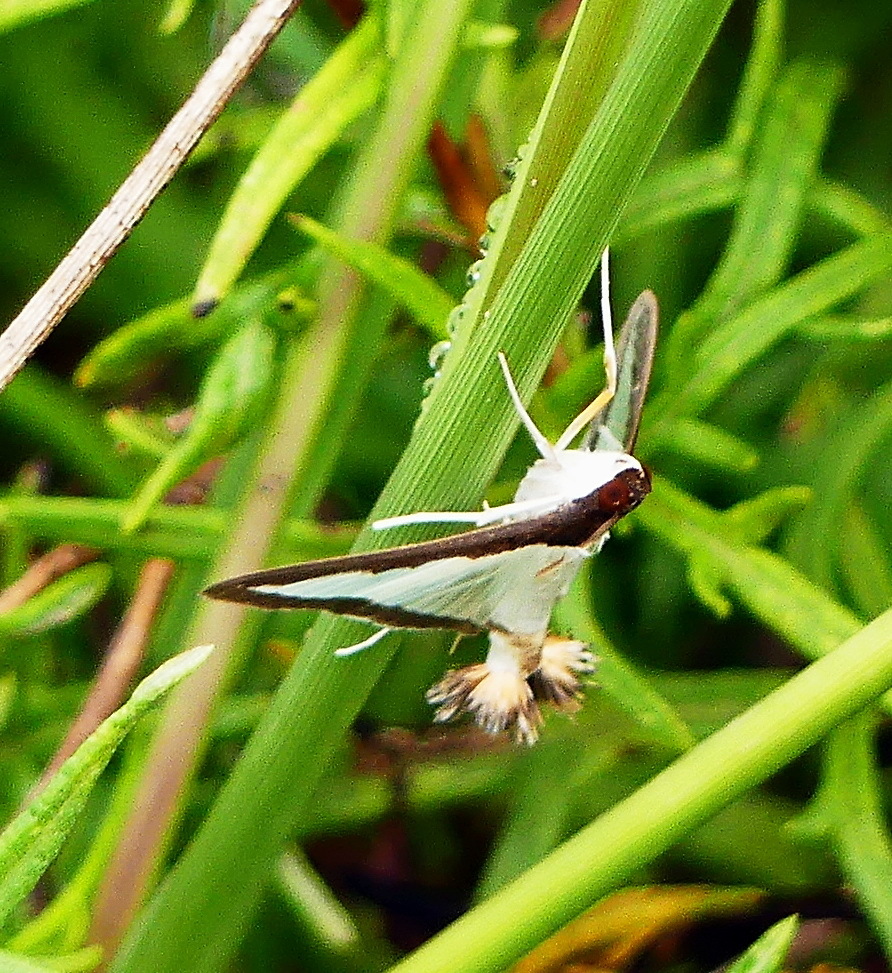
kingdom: Animalia
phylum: Arthropoda
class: Insecta
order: Lepidoptera
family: Crambidae
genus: Diaphania
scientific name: Diaphania hyalinata
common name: Melonworm
